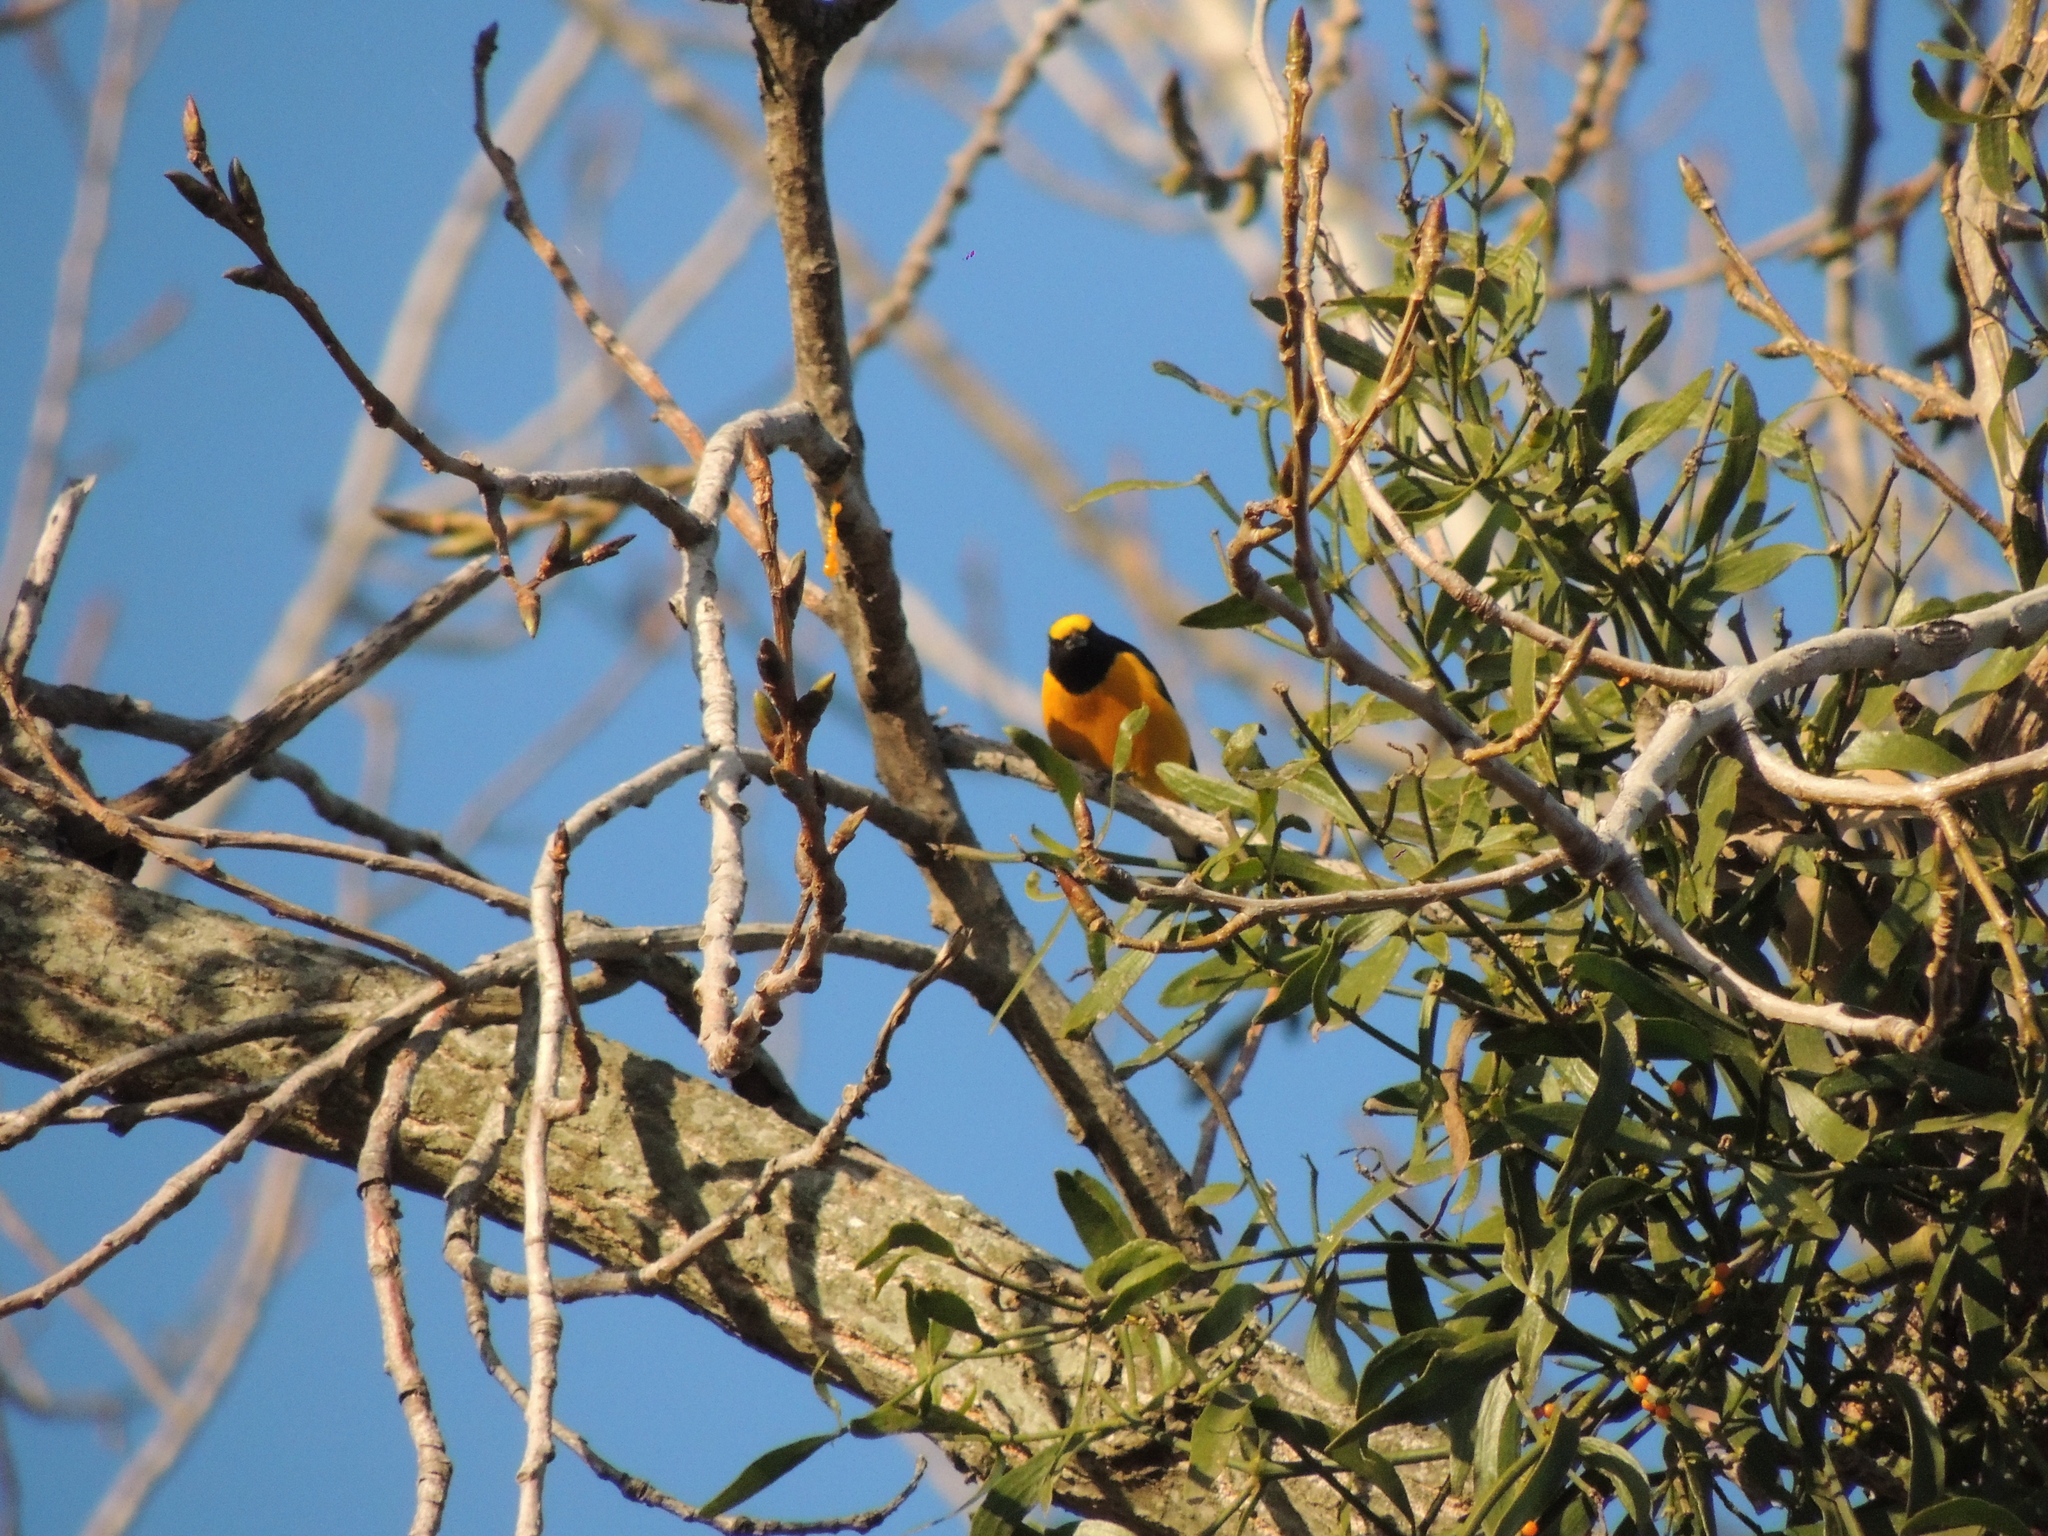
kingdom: Animalia
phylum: Chordata
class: Aves
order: Passeriformes
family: Fringillidae
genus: Euphonia
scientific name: Euphonia chlorotica
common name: Purple-throated euphonia
